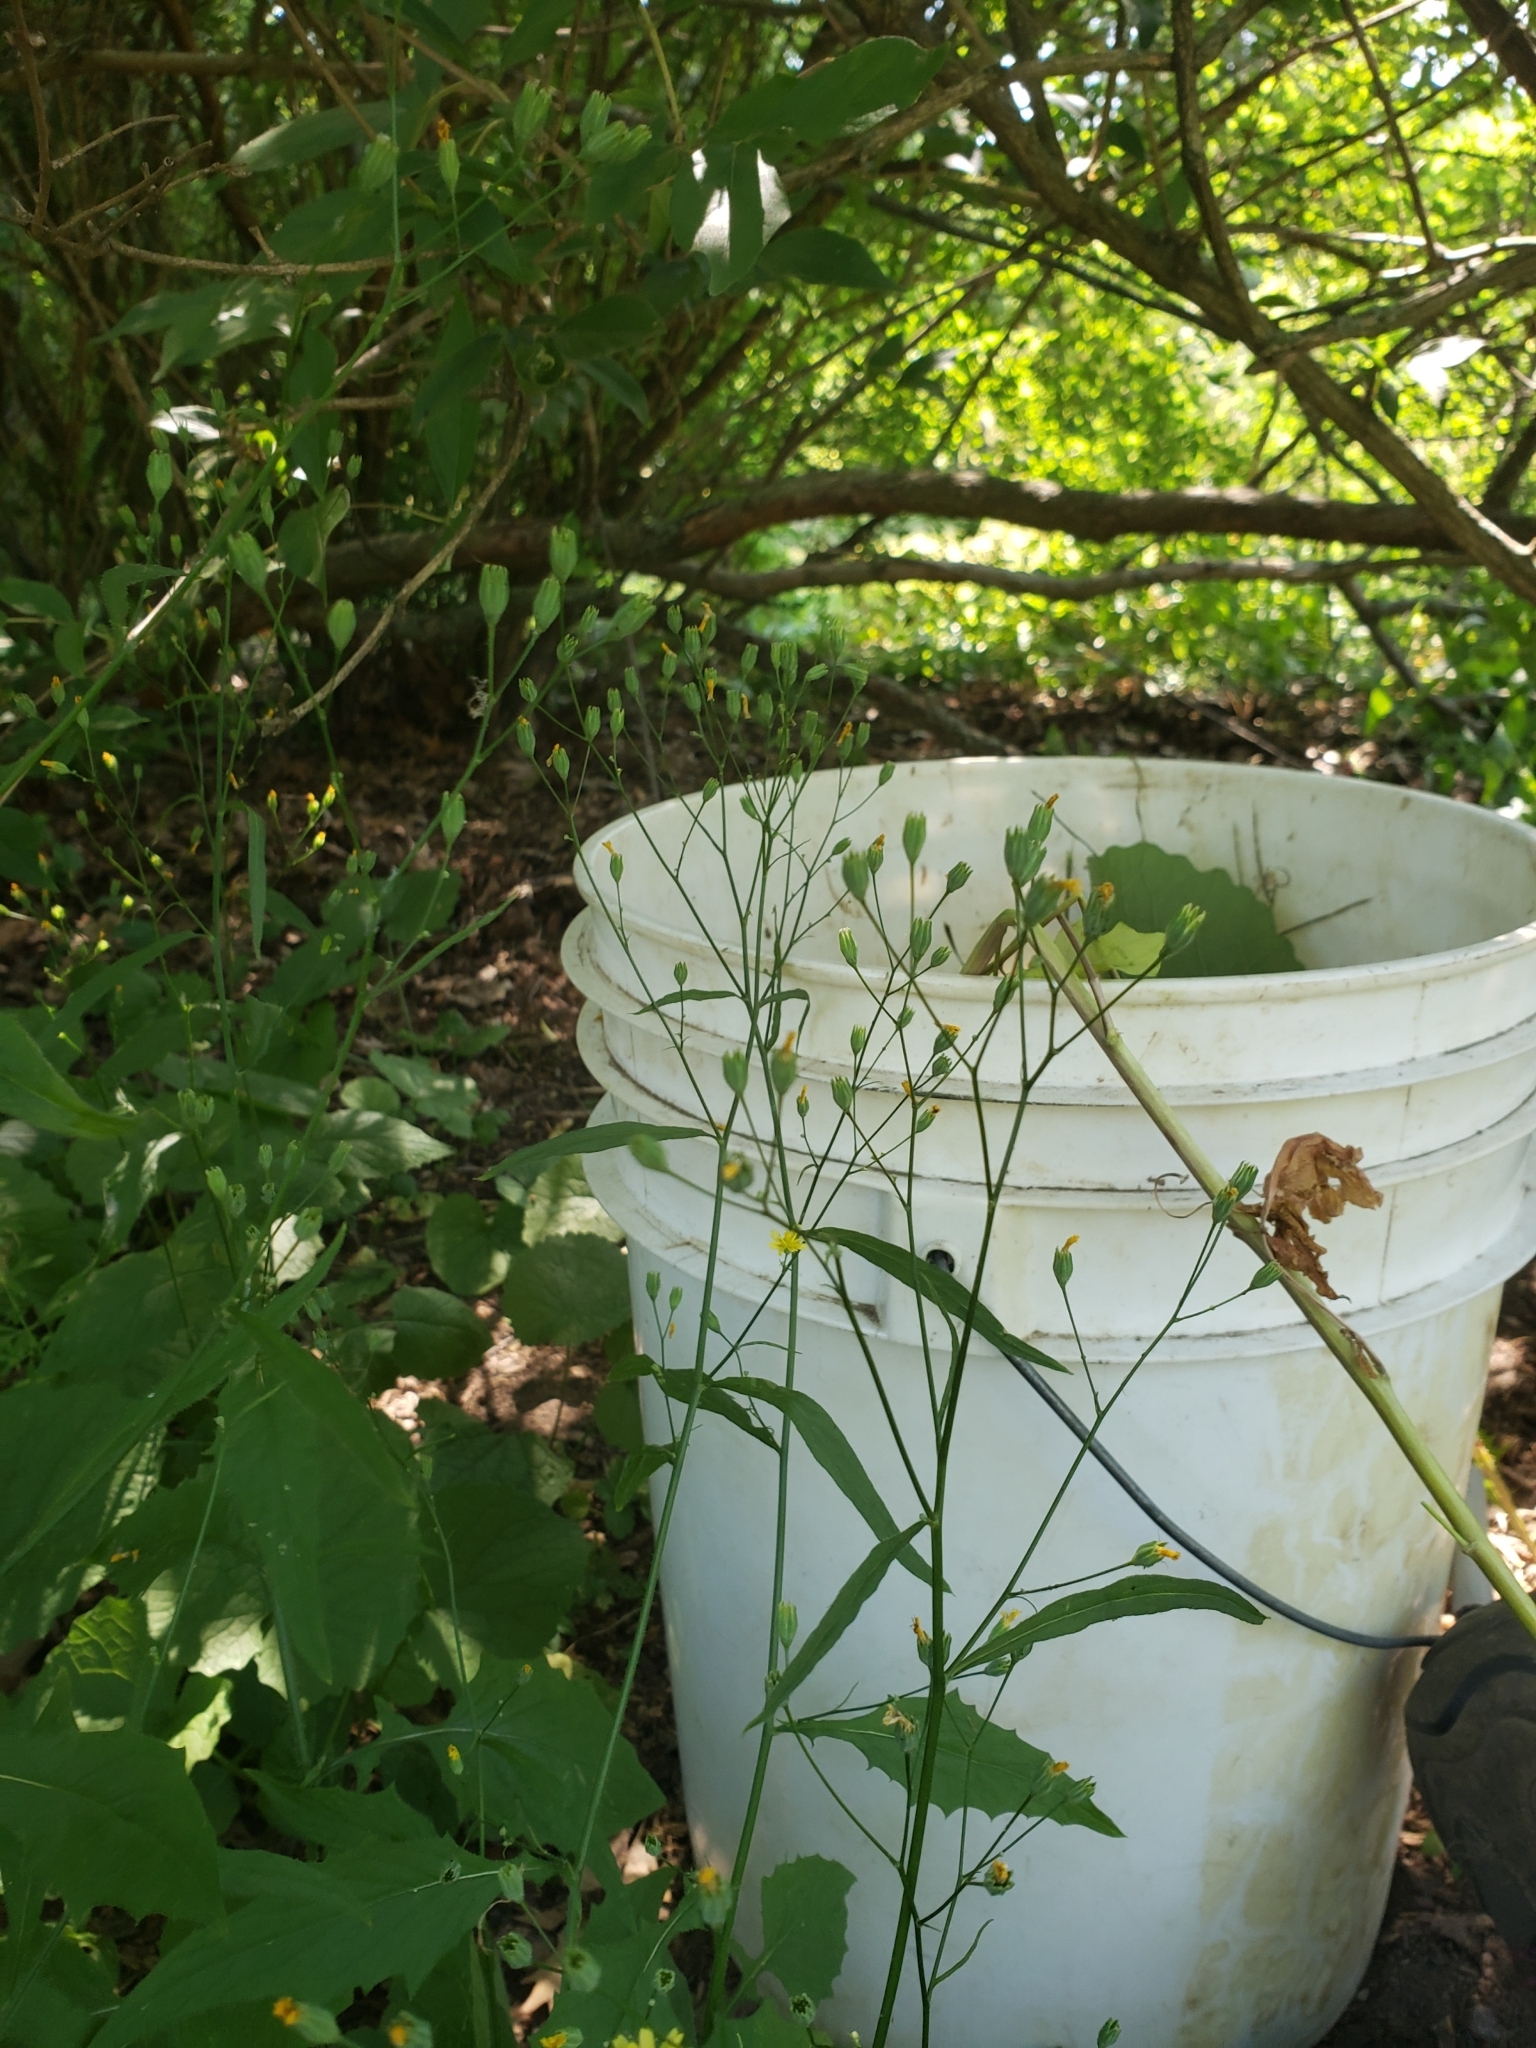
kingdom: Plantae
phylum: Tracheophyta
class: Magnoliopsida
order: Asterales
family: Asteraceae
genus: Lapsana
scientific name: Lapsana communis
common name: Nipplewort
